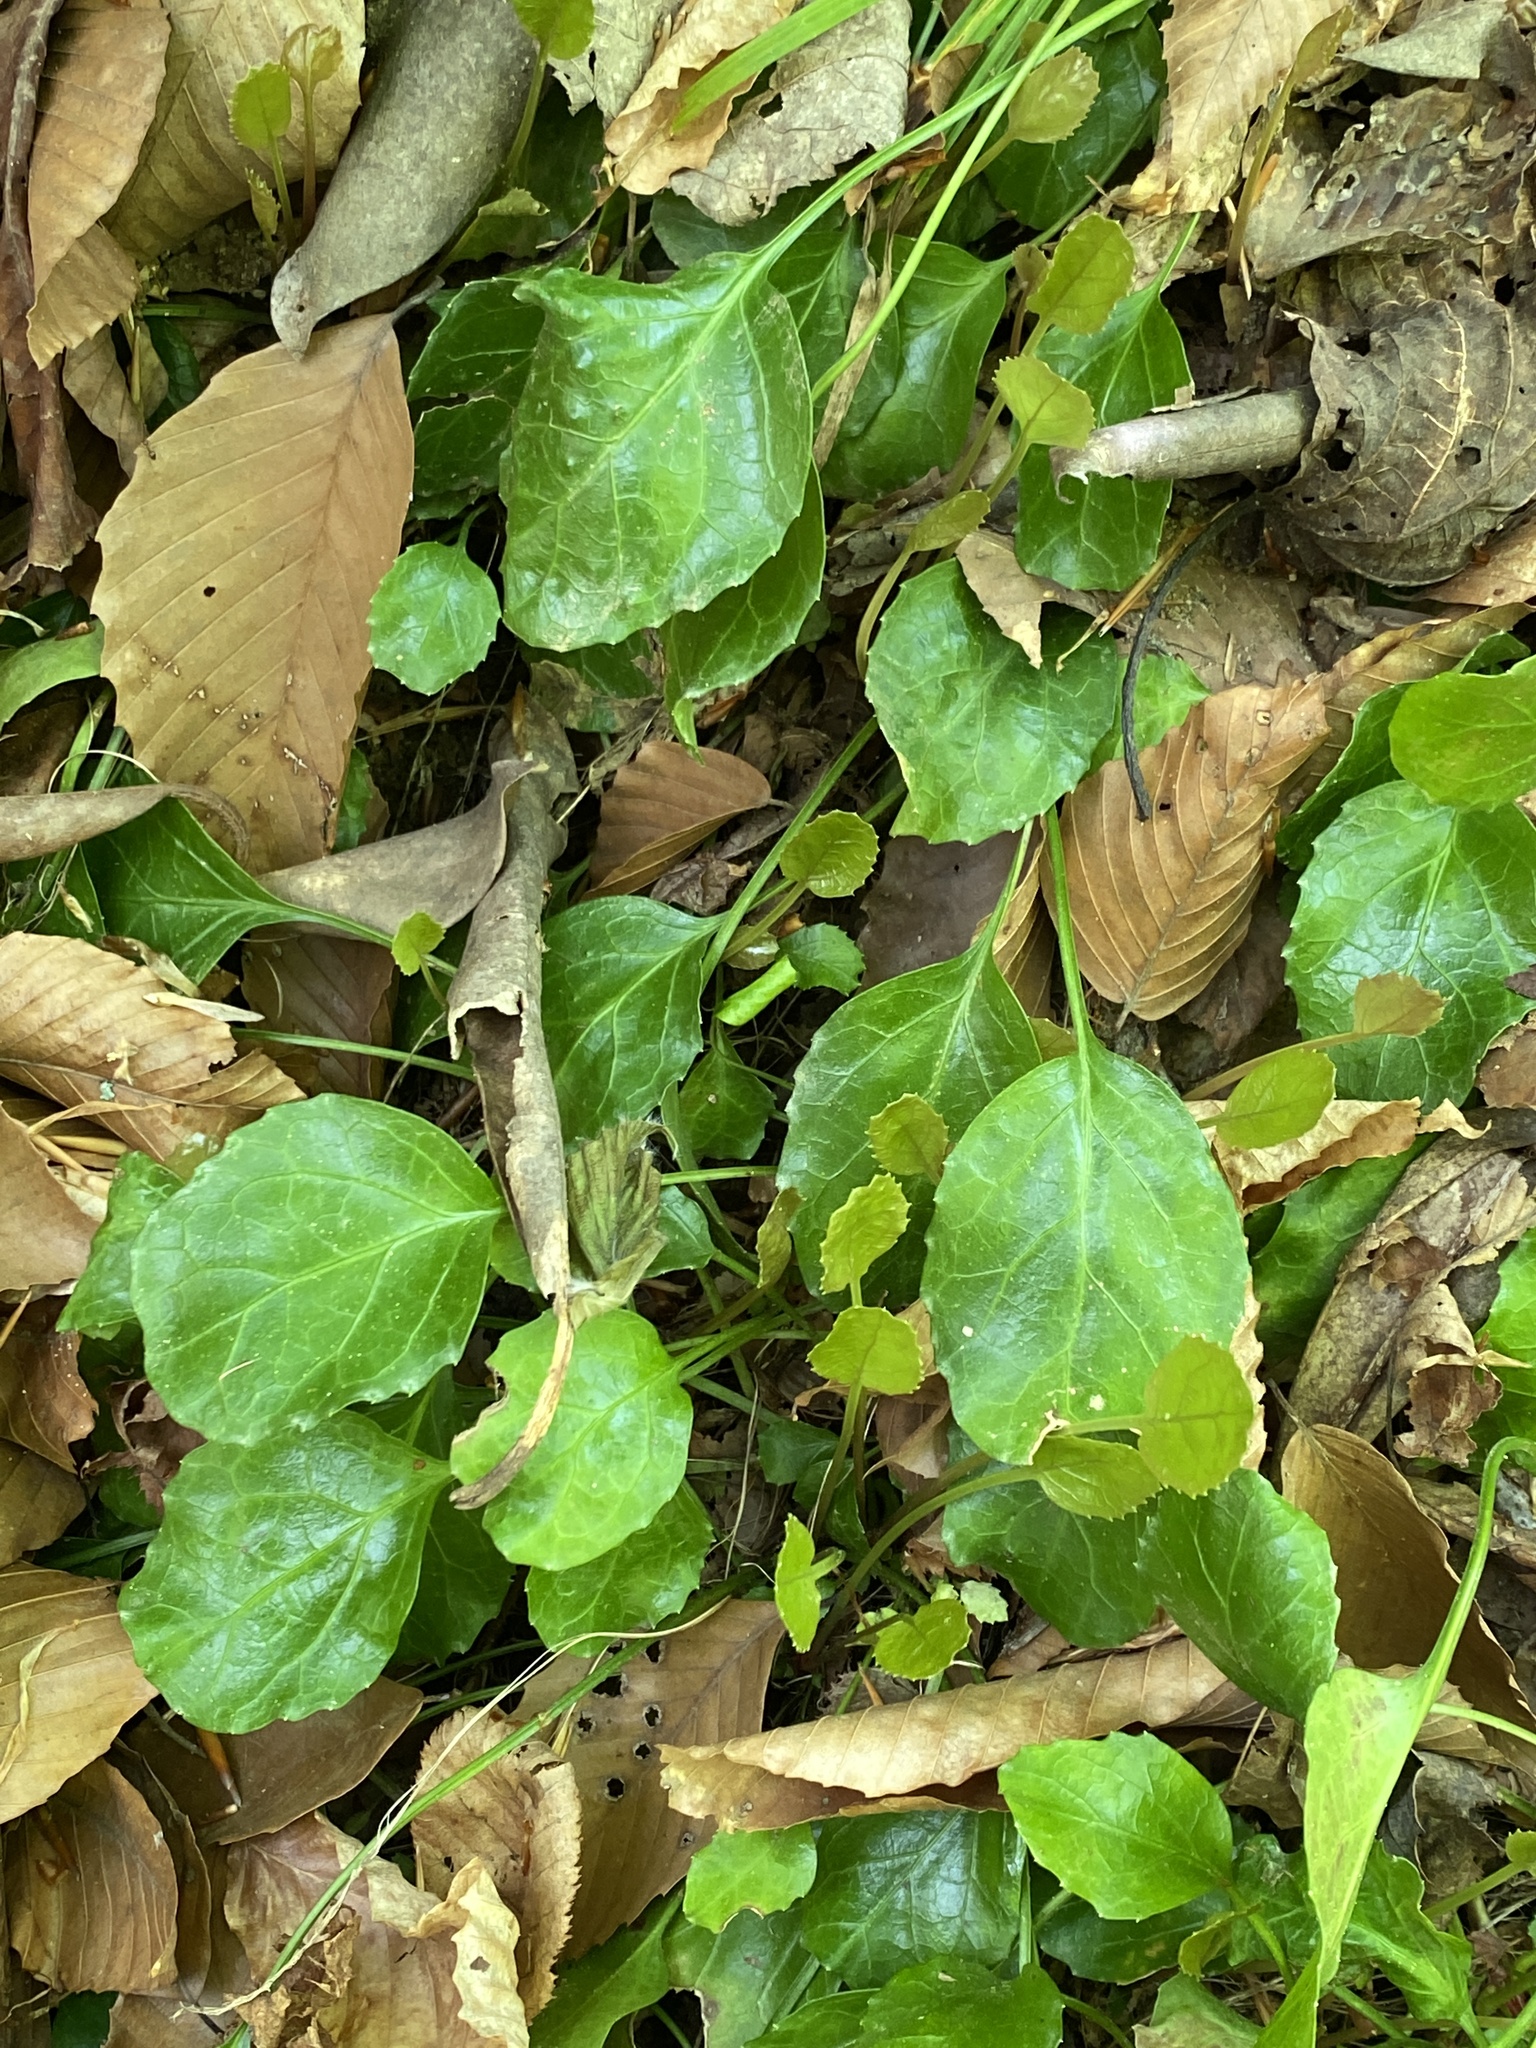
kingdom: Plantae
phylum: Tracheophyta
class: Magnoliopsida
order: Ericales
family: Diapensiaceae
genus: Shortia
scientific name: Shortia galacifolia
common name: Shortia
